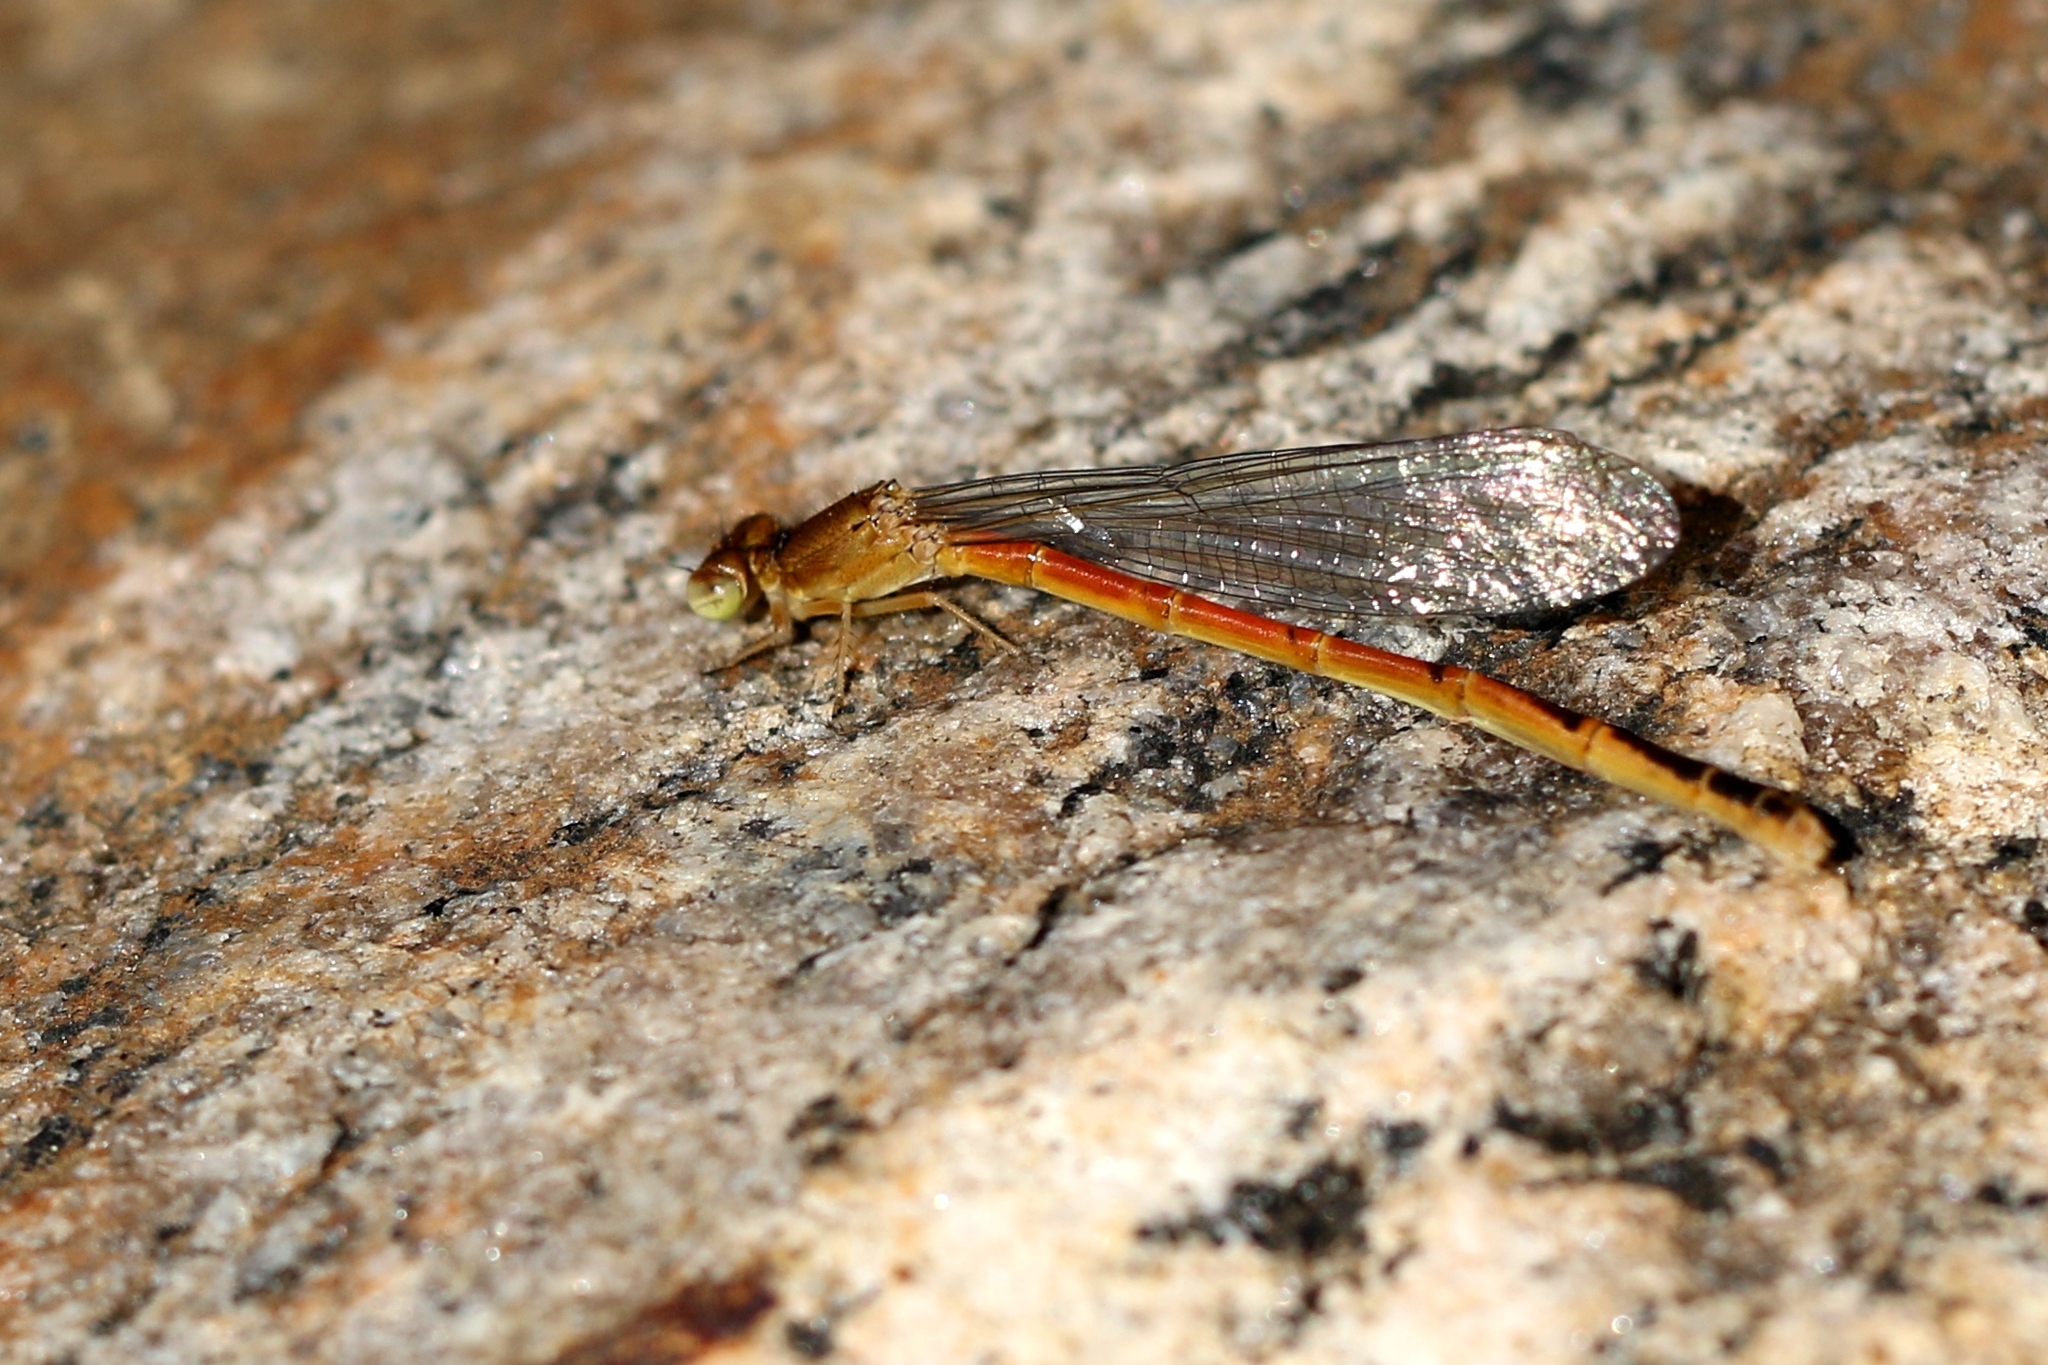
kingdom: Animalia
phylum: Arthropoda
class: Insecta
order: Odonata
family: Coenagrionidae
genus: Amphiagrion
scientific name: Amphiagrion saucium
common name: Eastern red damsel
